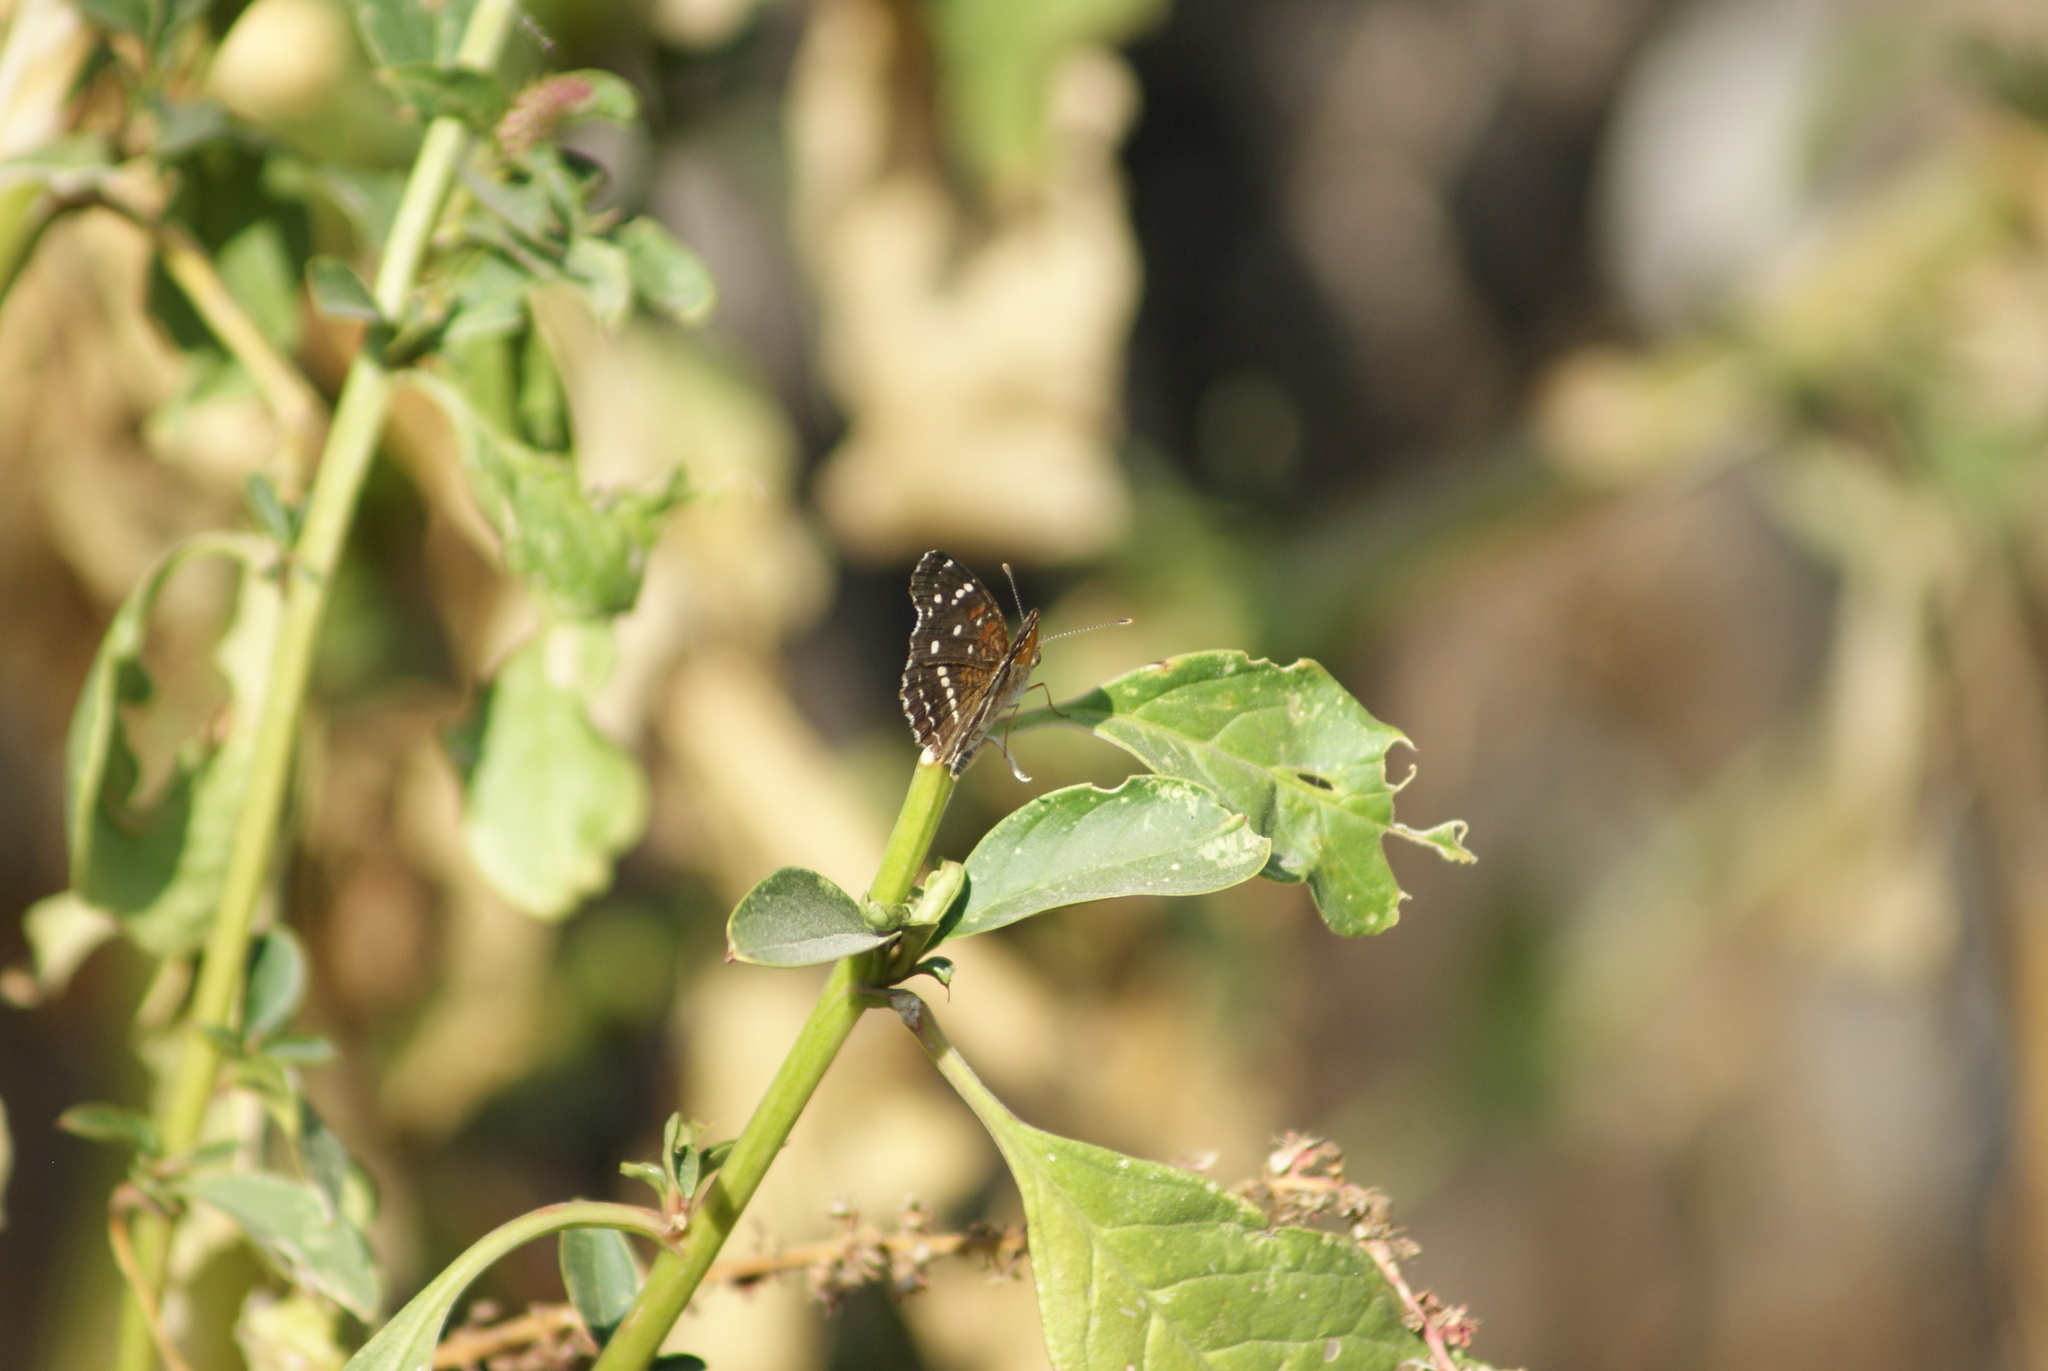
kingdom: Animalia
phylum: Arthropoda
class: Insecta
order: Lepidoptera
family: Nymphalidae
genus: Anthanassa
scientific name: Anthanassa texana
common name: Texan crescent
